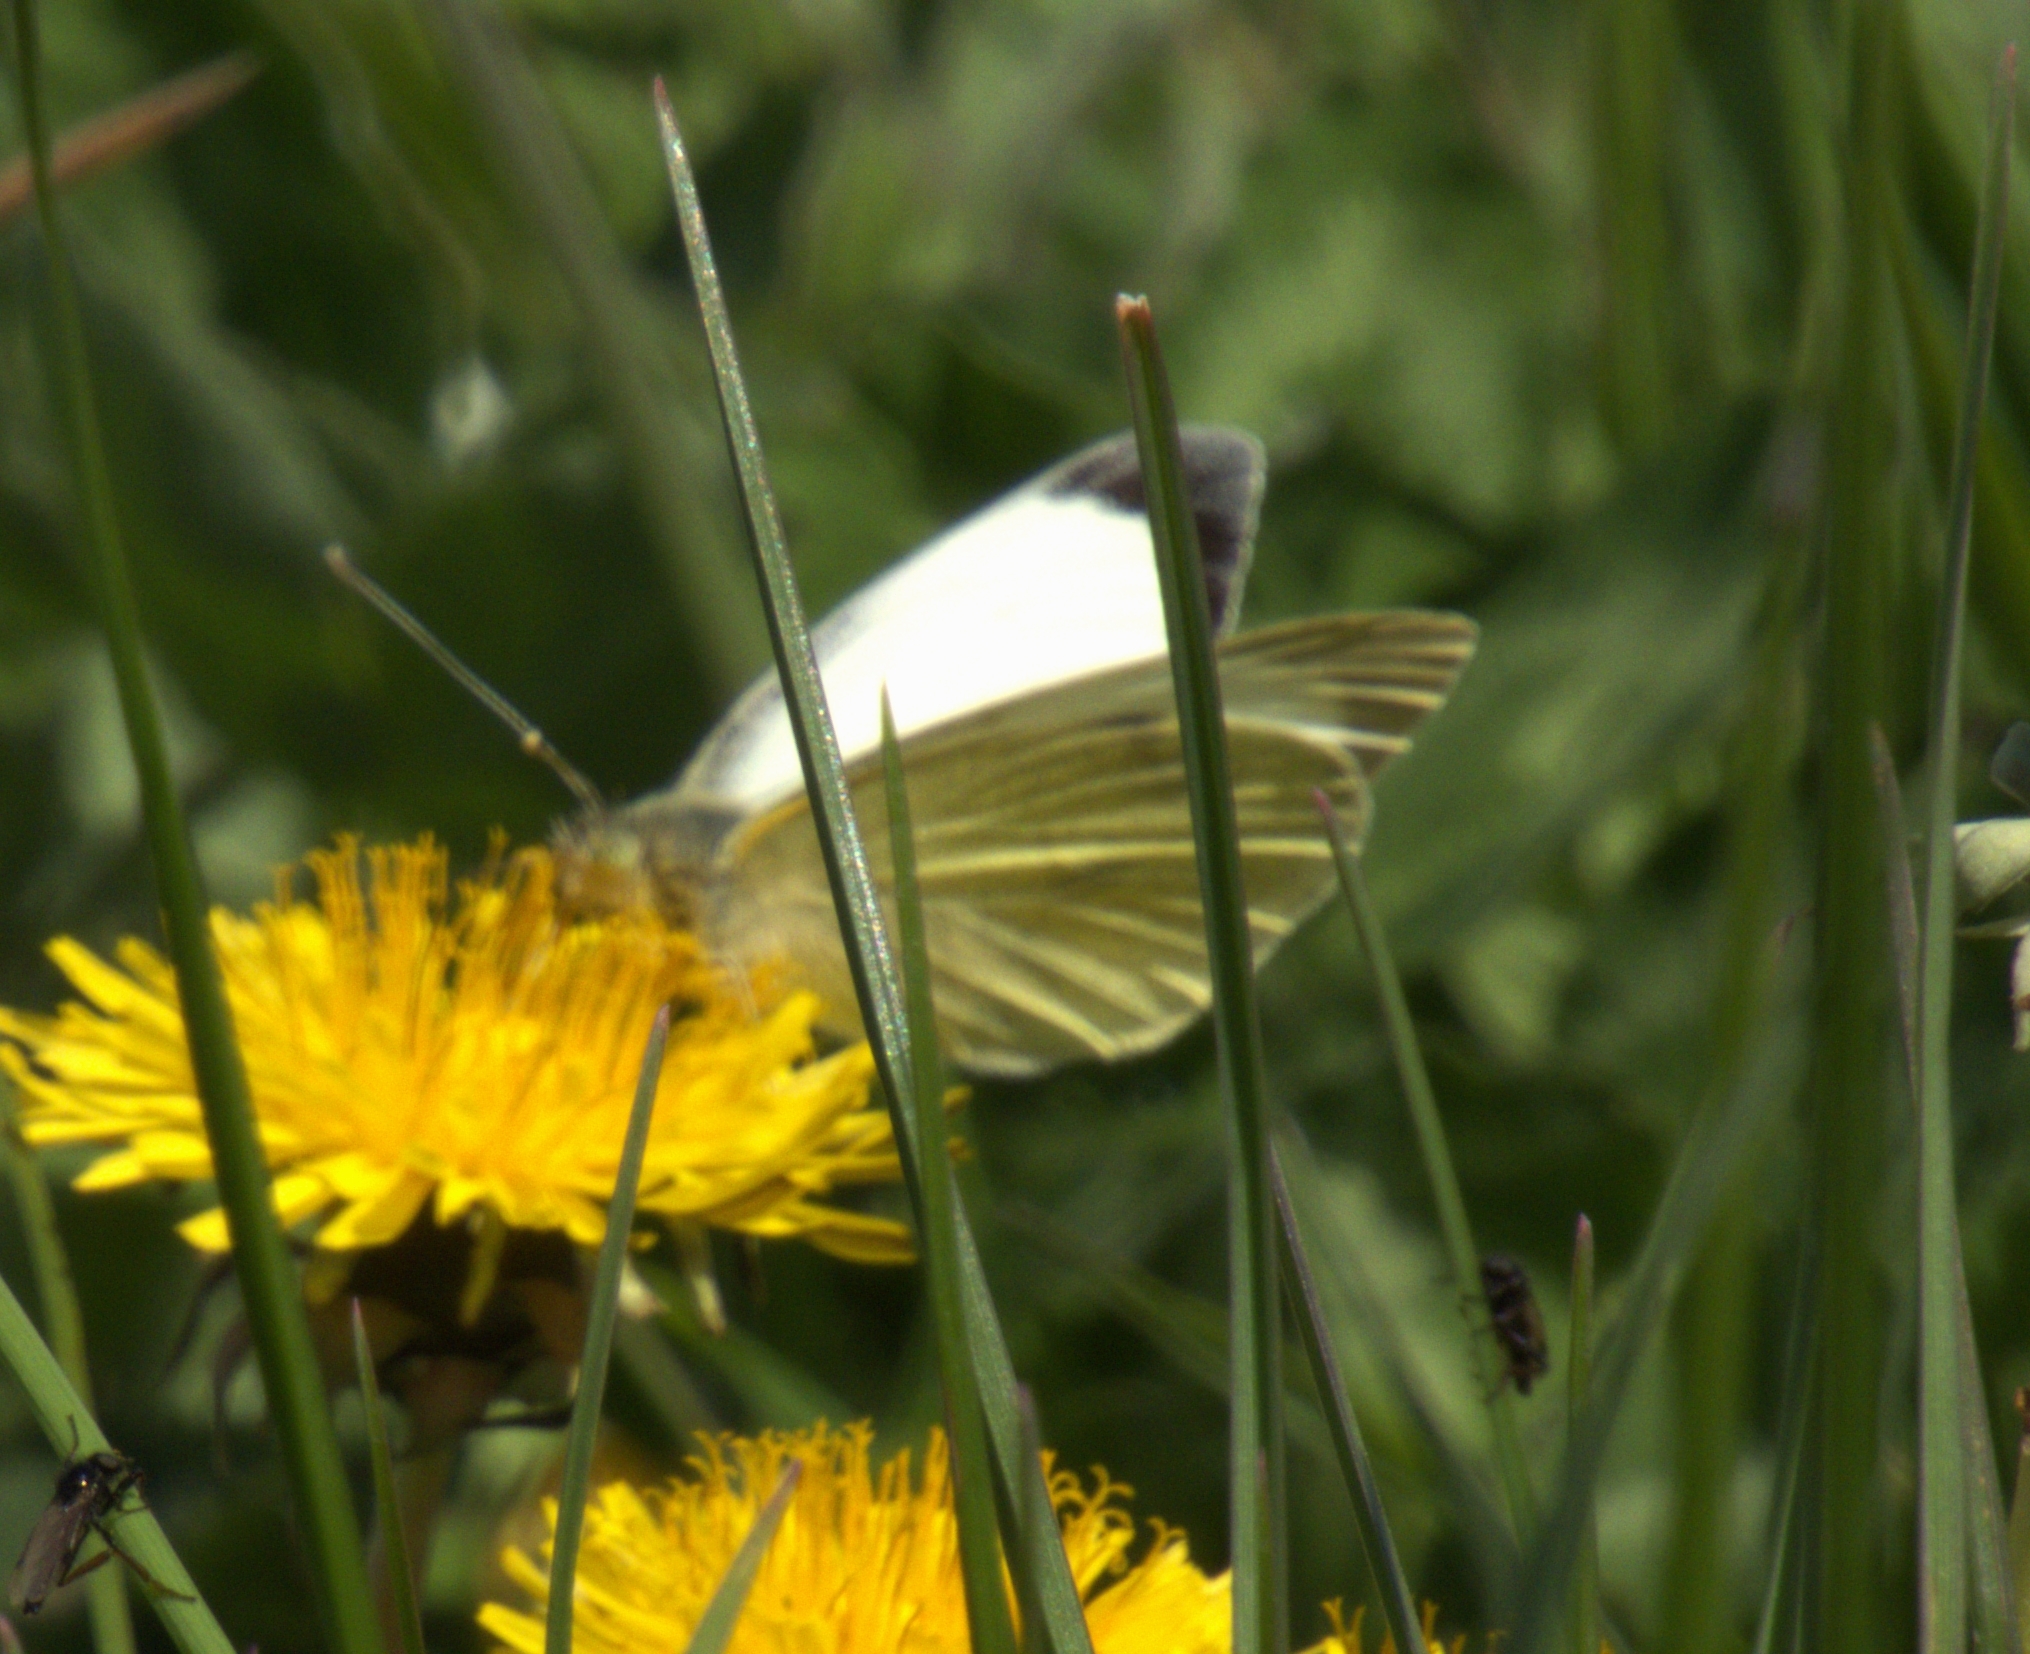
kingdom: Animalia
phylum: Arthropoda
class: Insecta
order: Lepidoptera
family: Pieridae
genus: Pieris
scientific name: Pieris brassicae
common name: Large white
